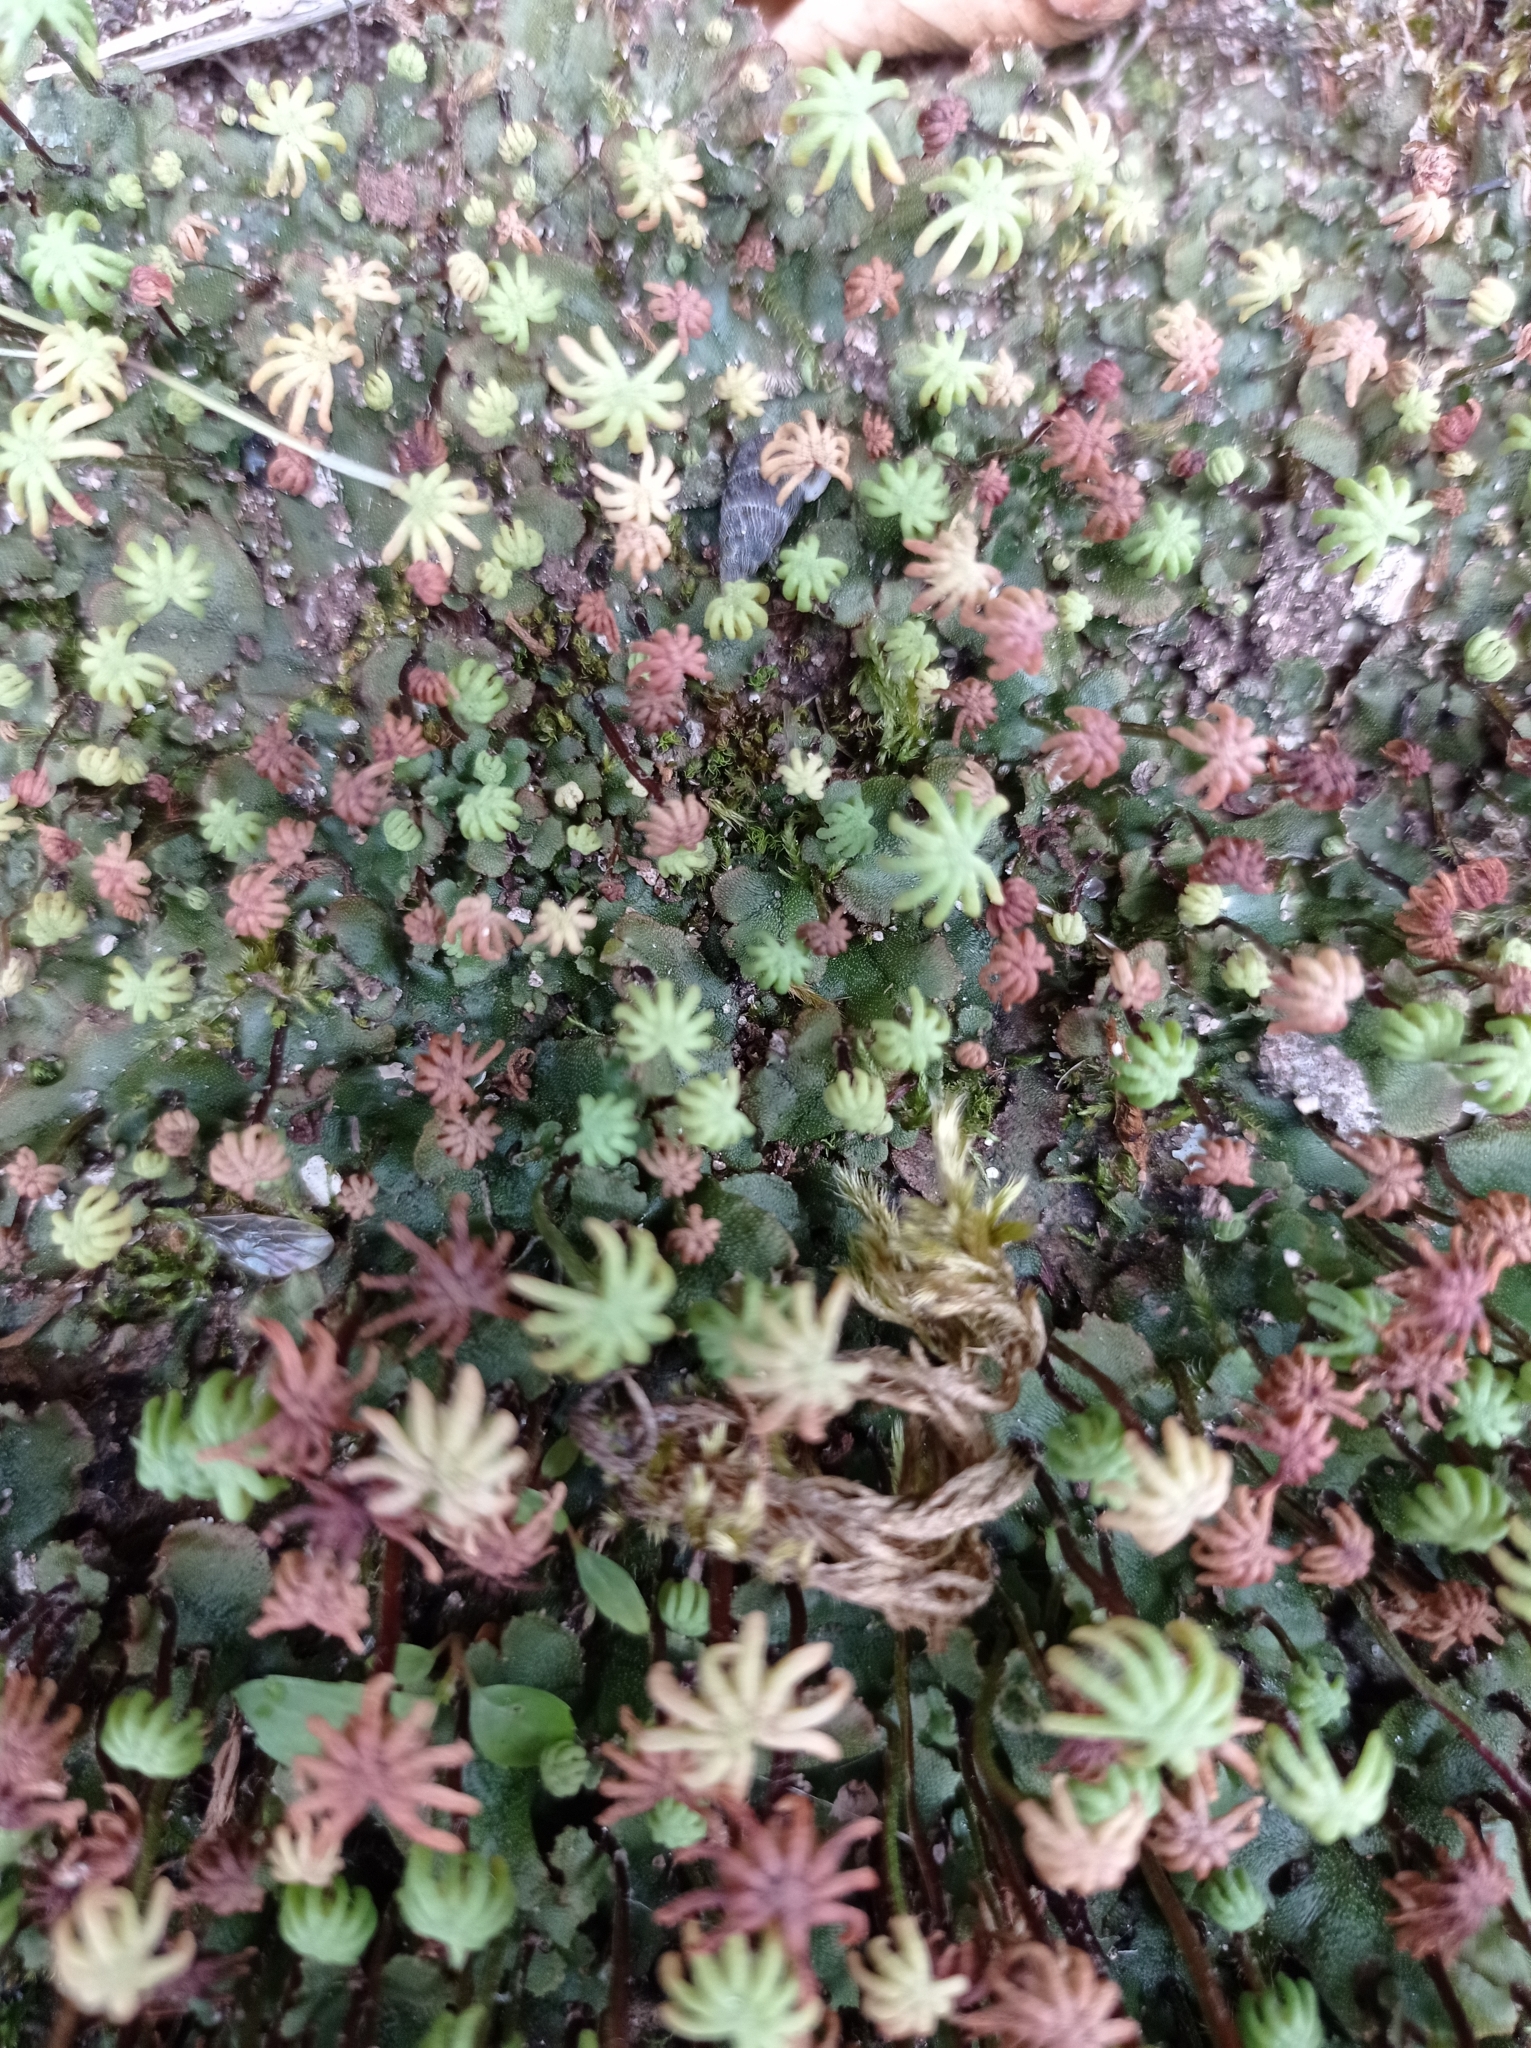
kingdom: Plantae
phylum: Marchantiophyta
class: Marchantiopsida
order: Marchantiales
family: Marchantiaceae
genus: Marchantia
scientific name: Marchantia polymorpha
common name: Common liverwort
